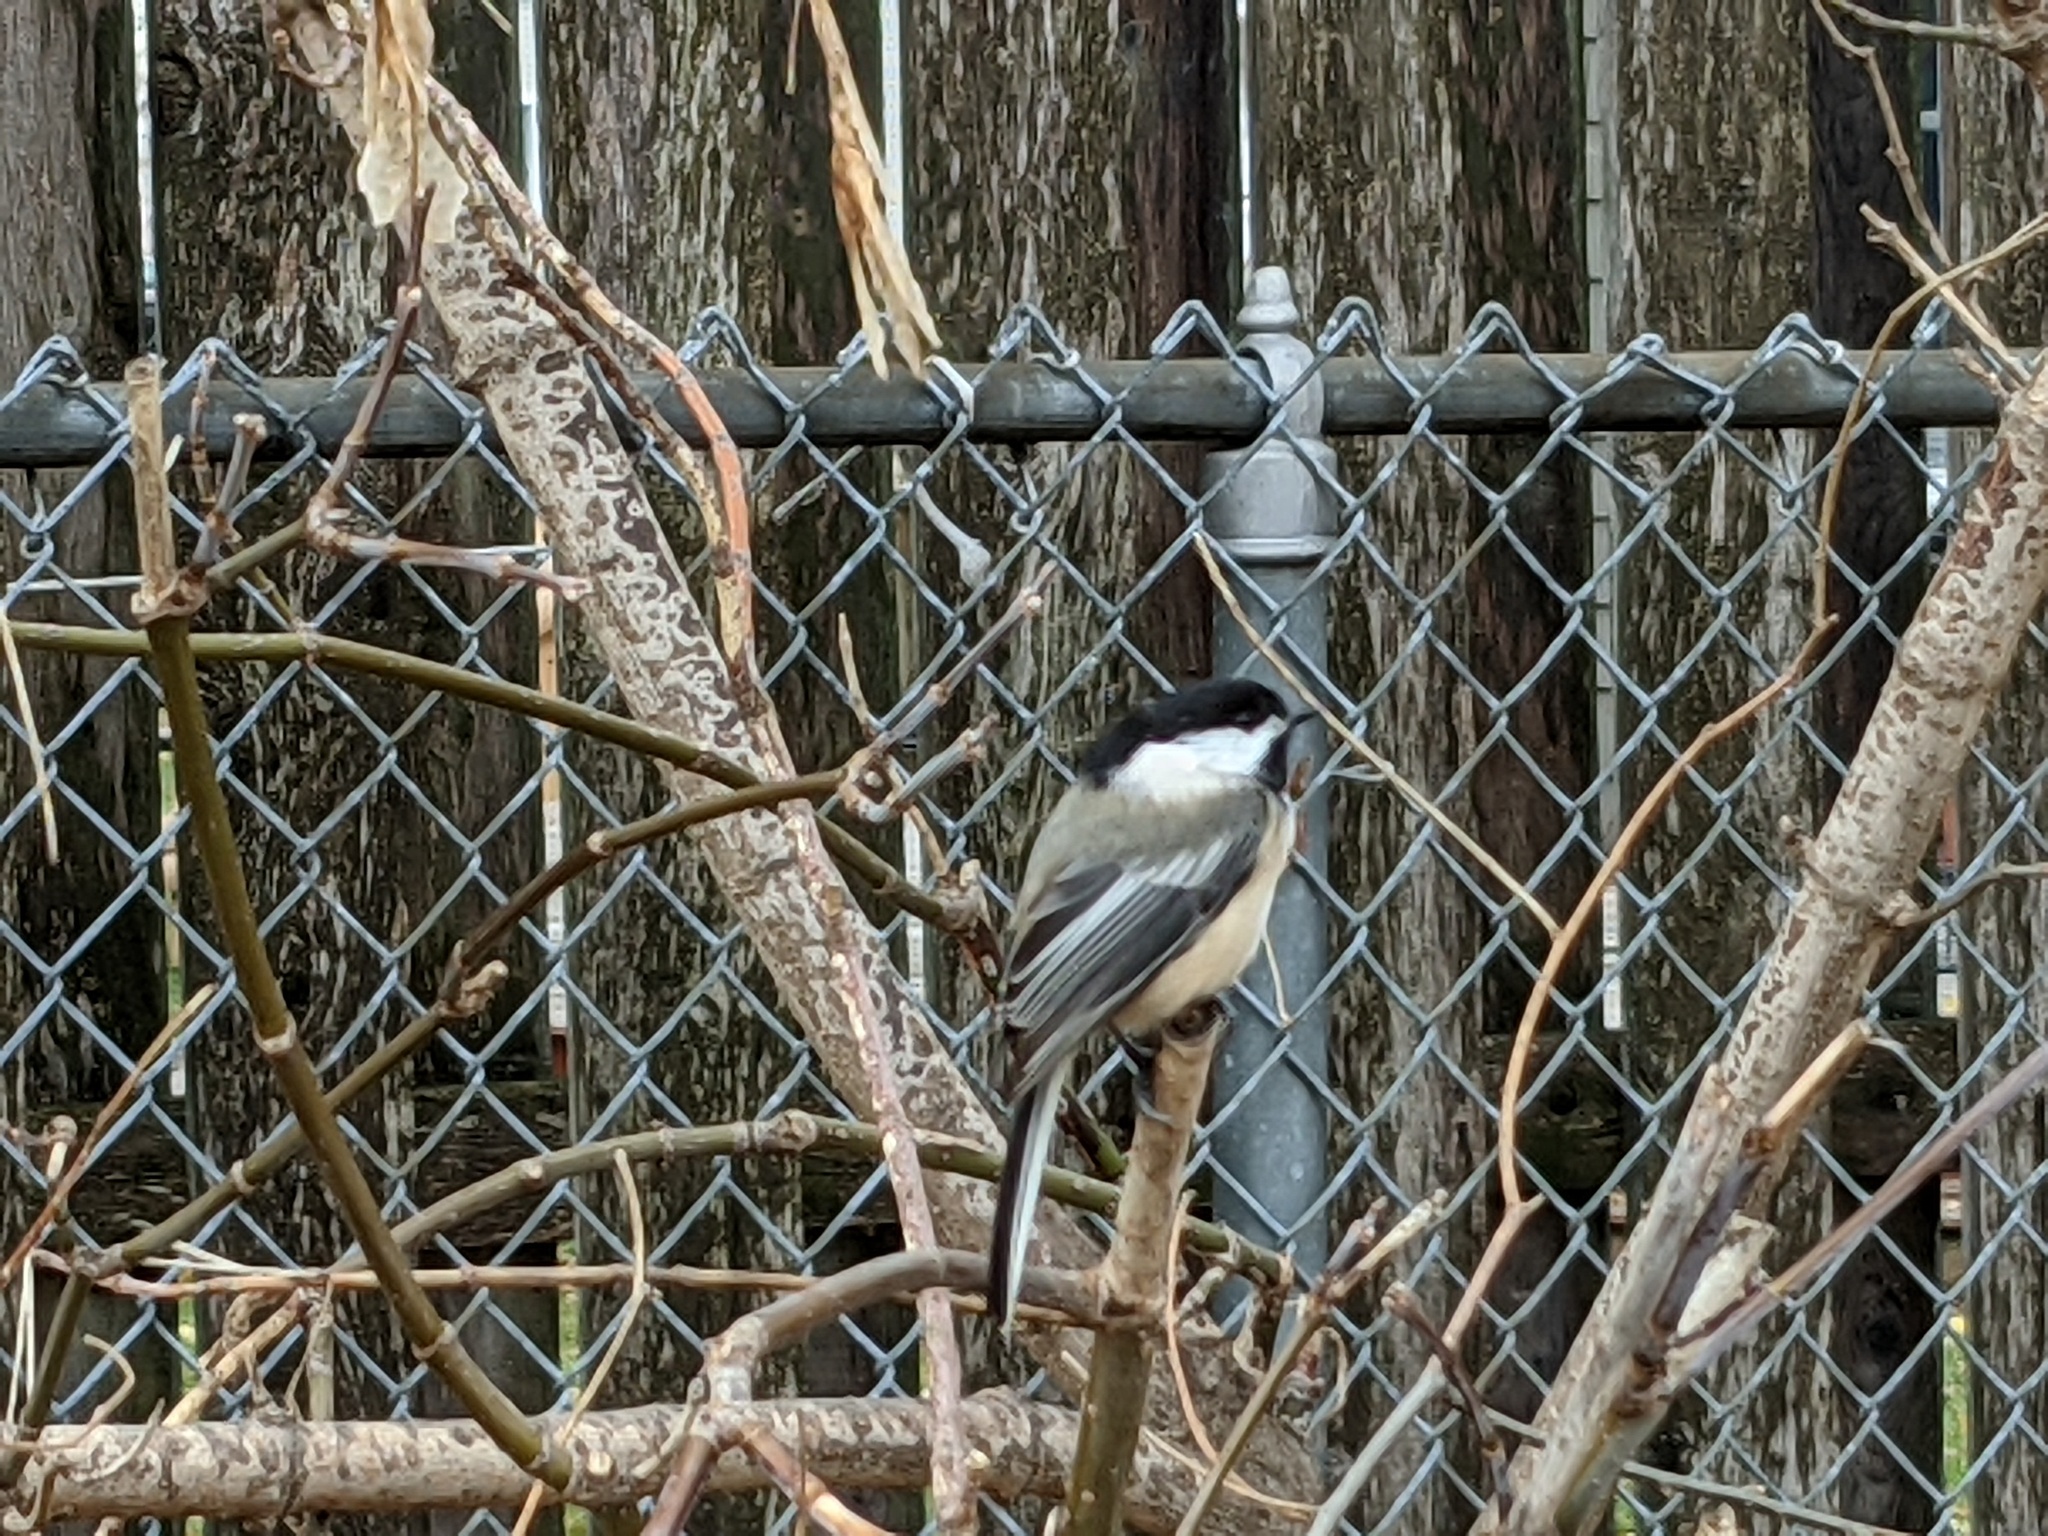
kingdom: Animalia
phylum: Chordata
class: Aves
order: Passeriformes
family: Paridae
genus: Poecile
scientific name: Poecile atricapillus
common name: Black-capped chickadee
